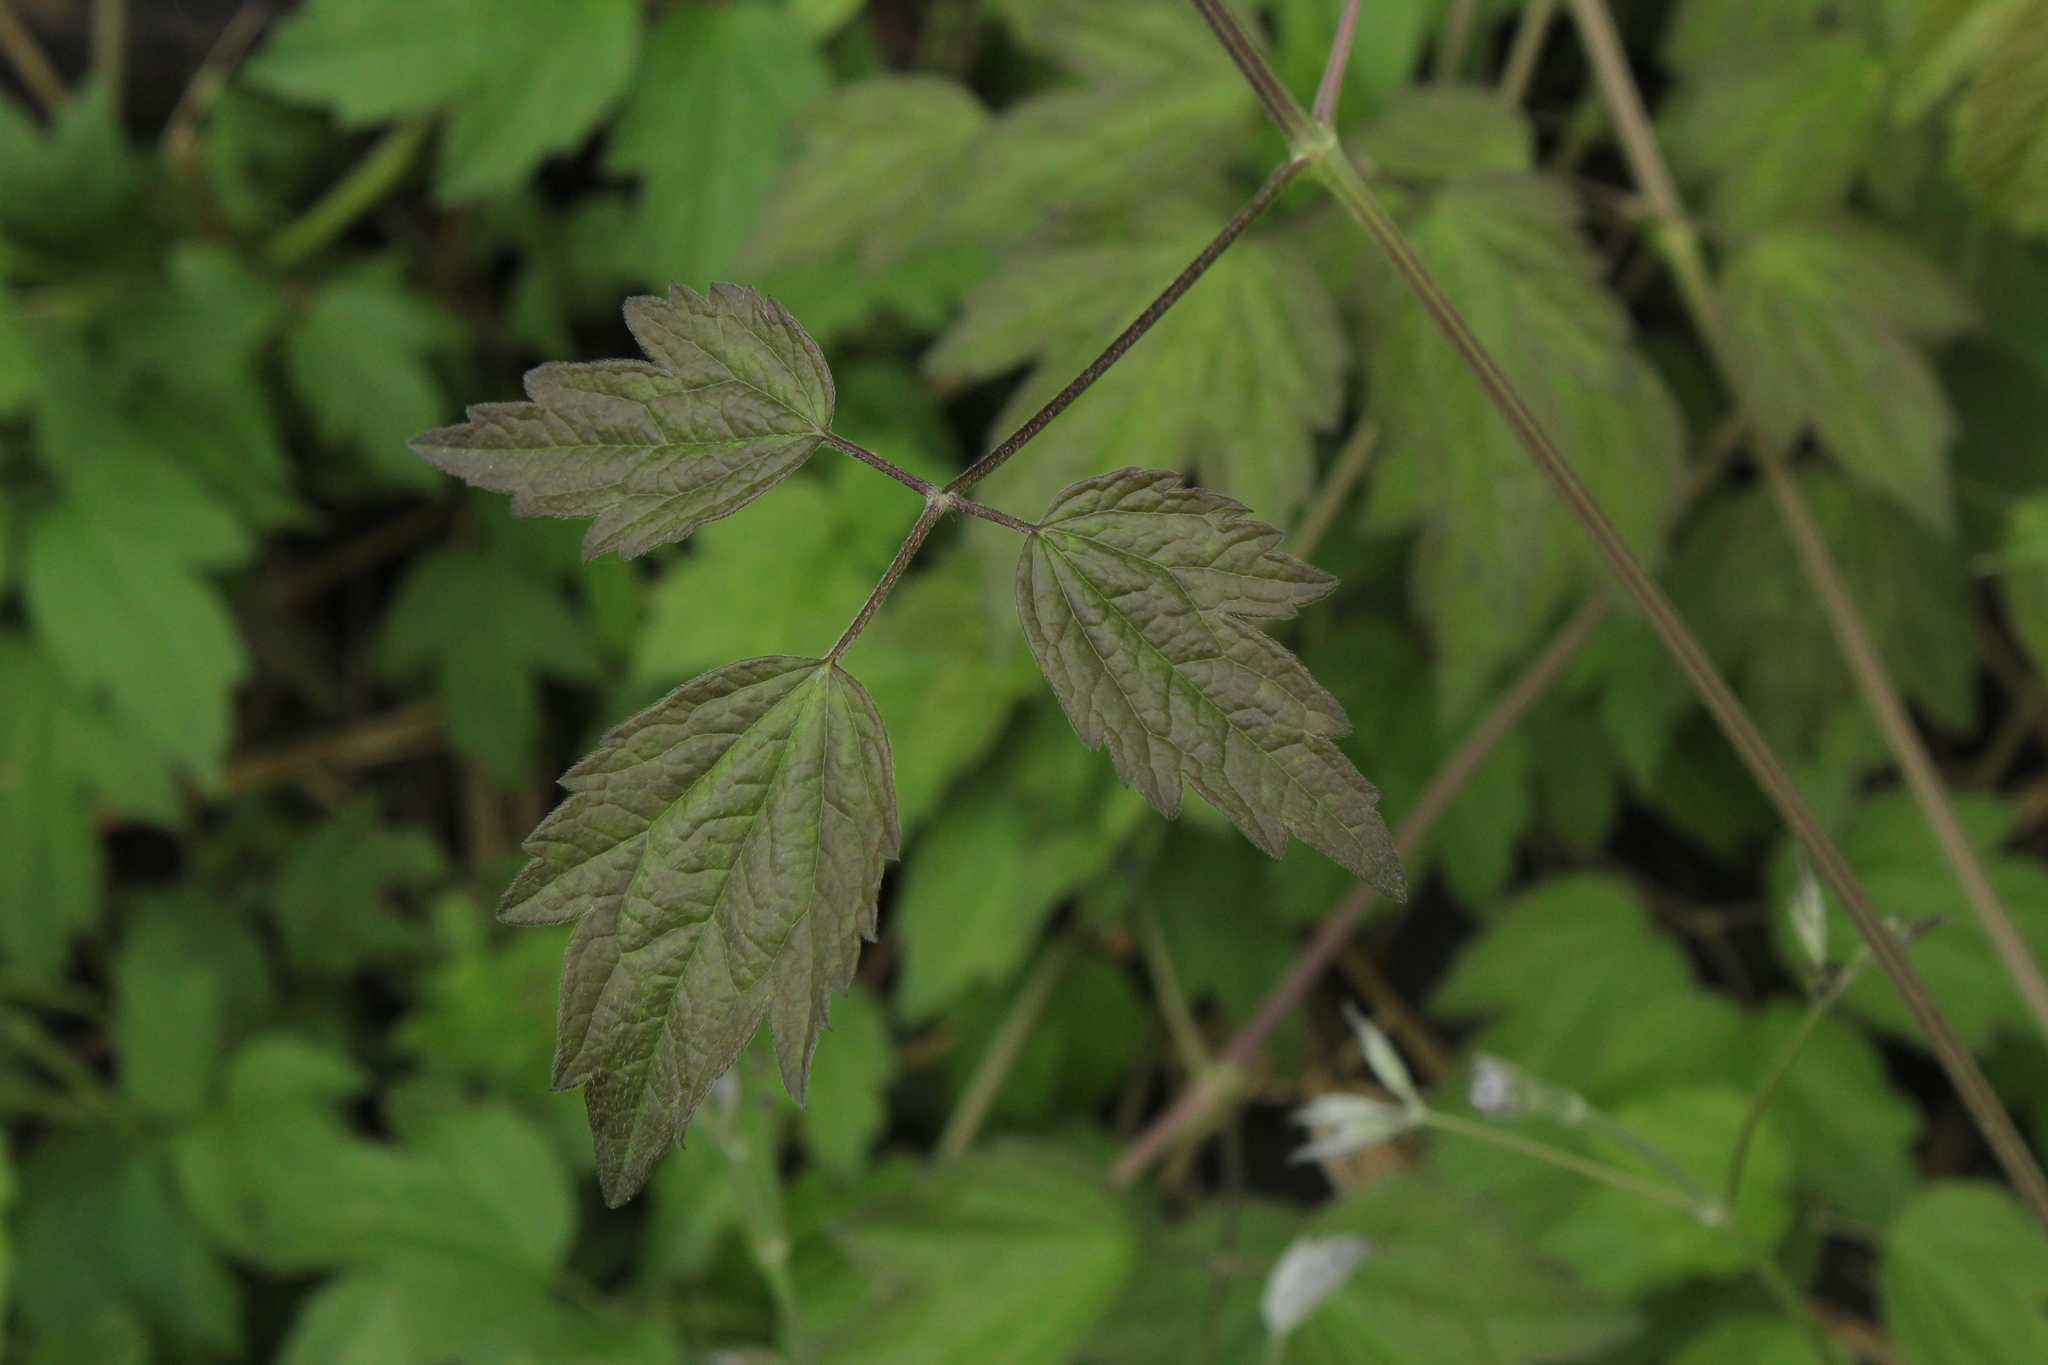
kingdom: Plantae
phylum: Tracheophyta
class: Magnoliopsida
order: Ranunculales
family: Ranunculaceae
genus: Clematis
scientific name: Clematis virginiana
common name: Virgin's-bower
